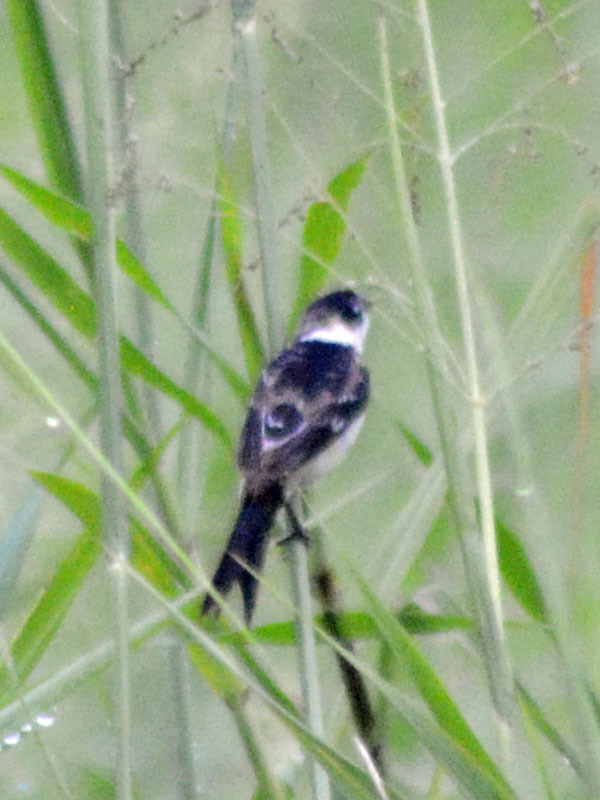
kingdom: Animalia
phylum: Chordata
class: Aves
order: Passeriformes
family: Thraupidae
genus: Sporophila
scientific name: Sporophila morelleti
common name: Morelet's seedeater
